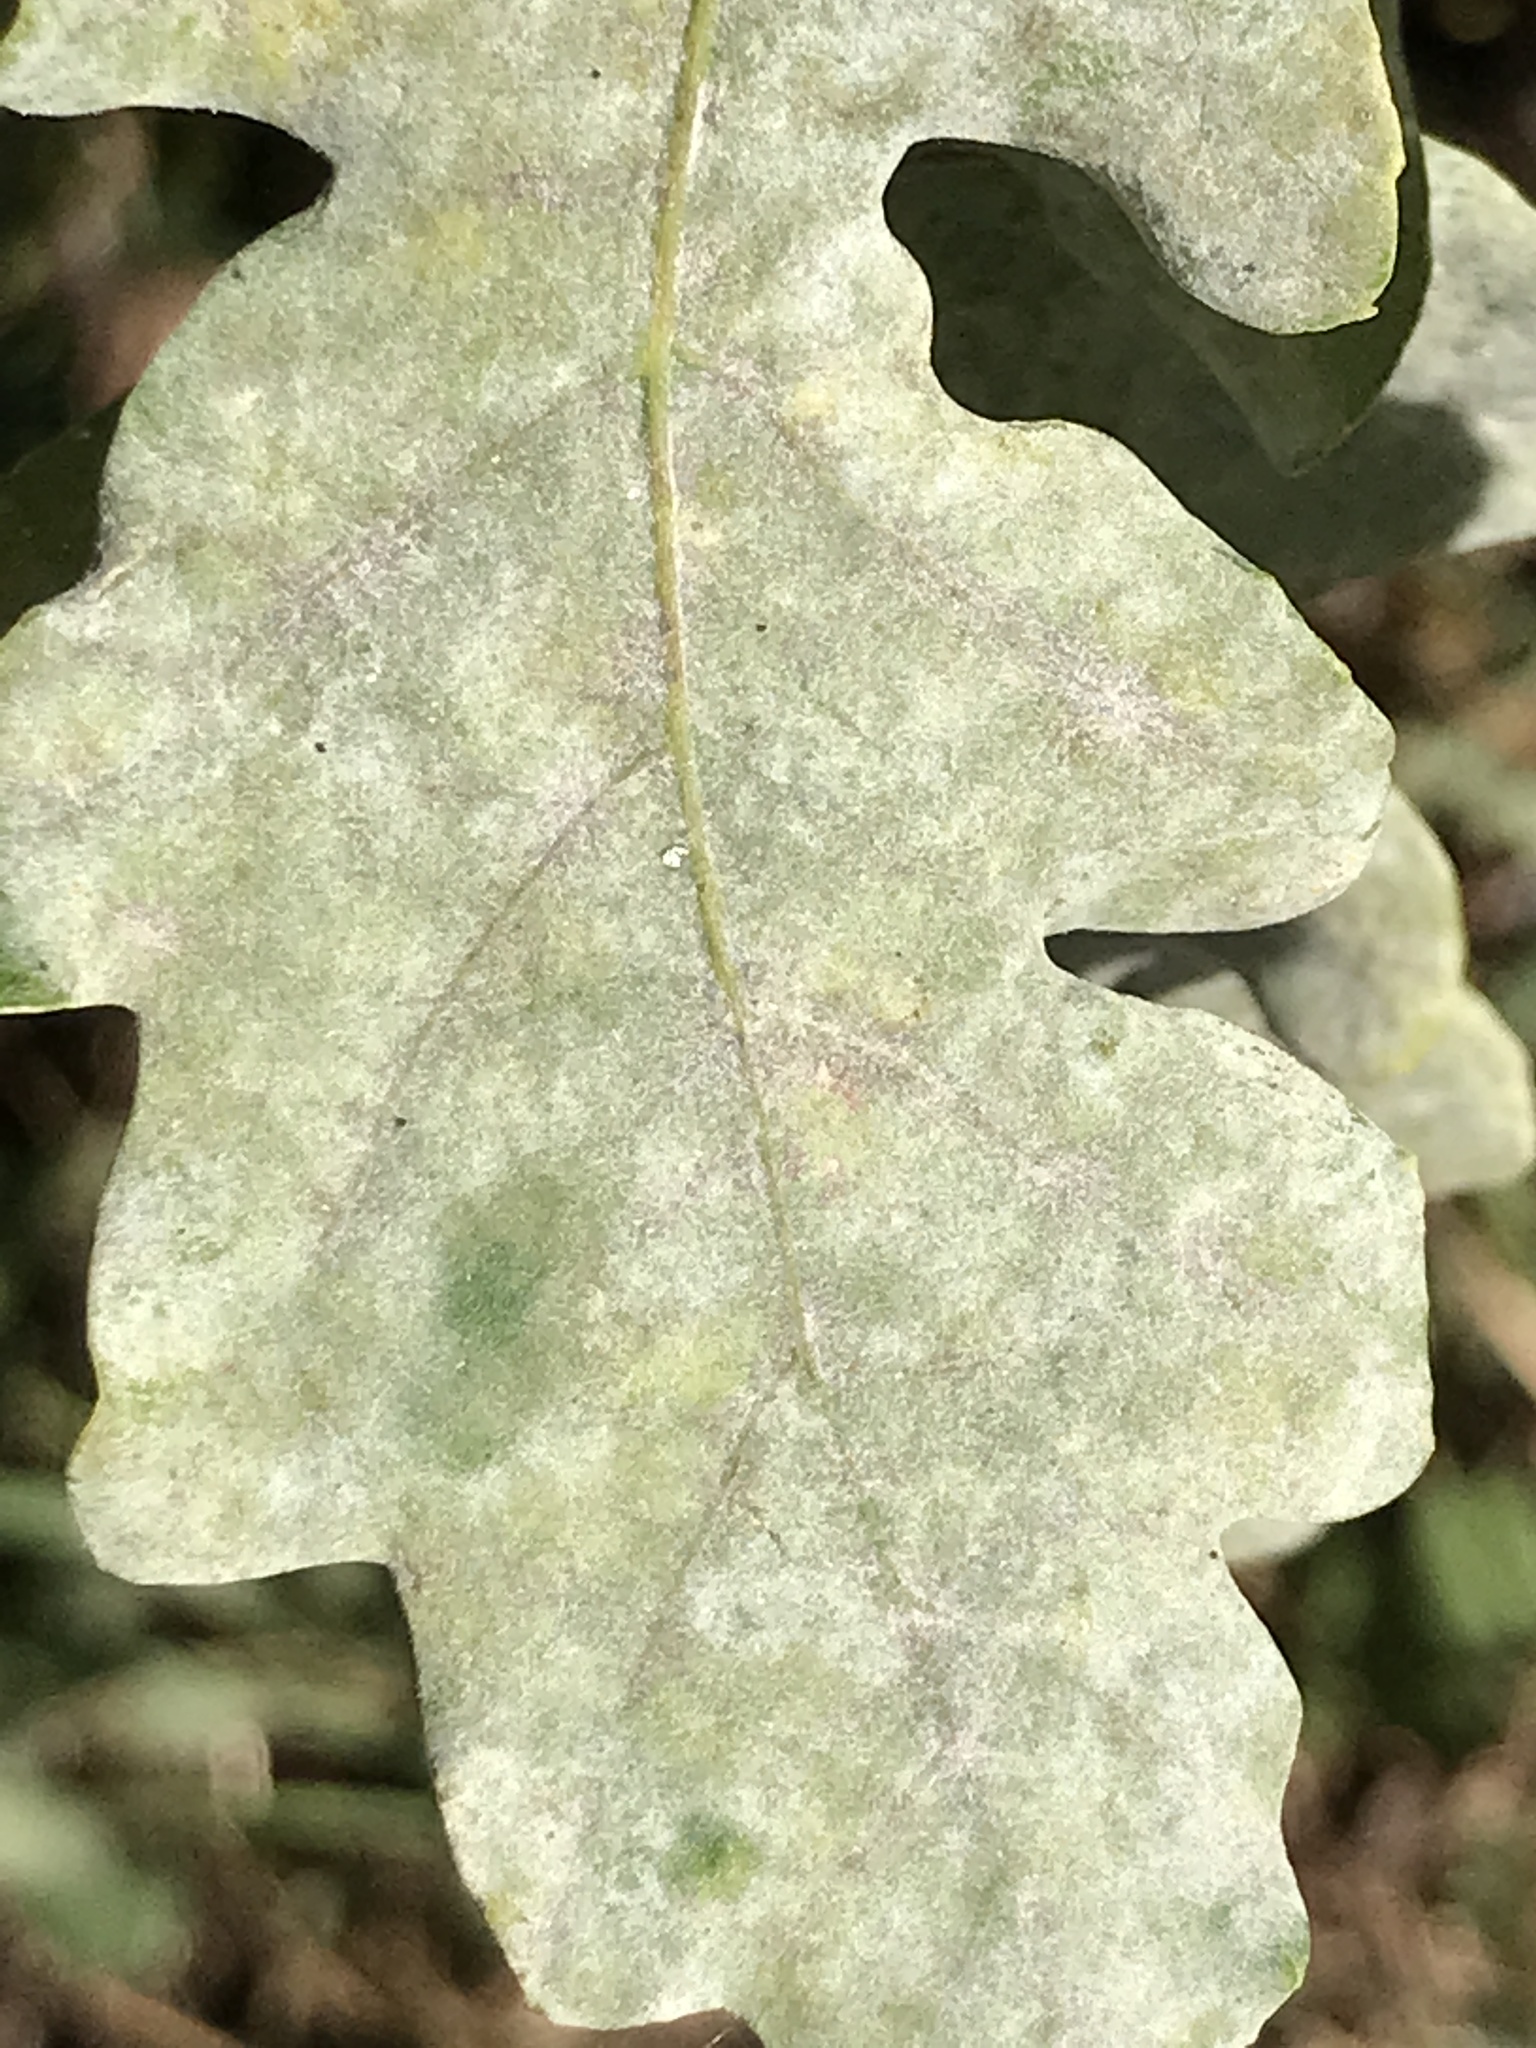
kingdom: Fungi
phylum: Ascomycota
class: Leotiomycetes
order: Helotiales
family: Erysiphaceae
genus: Erysiphe
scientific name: Erysiphe
